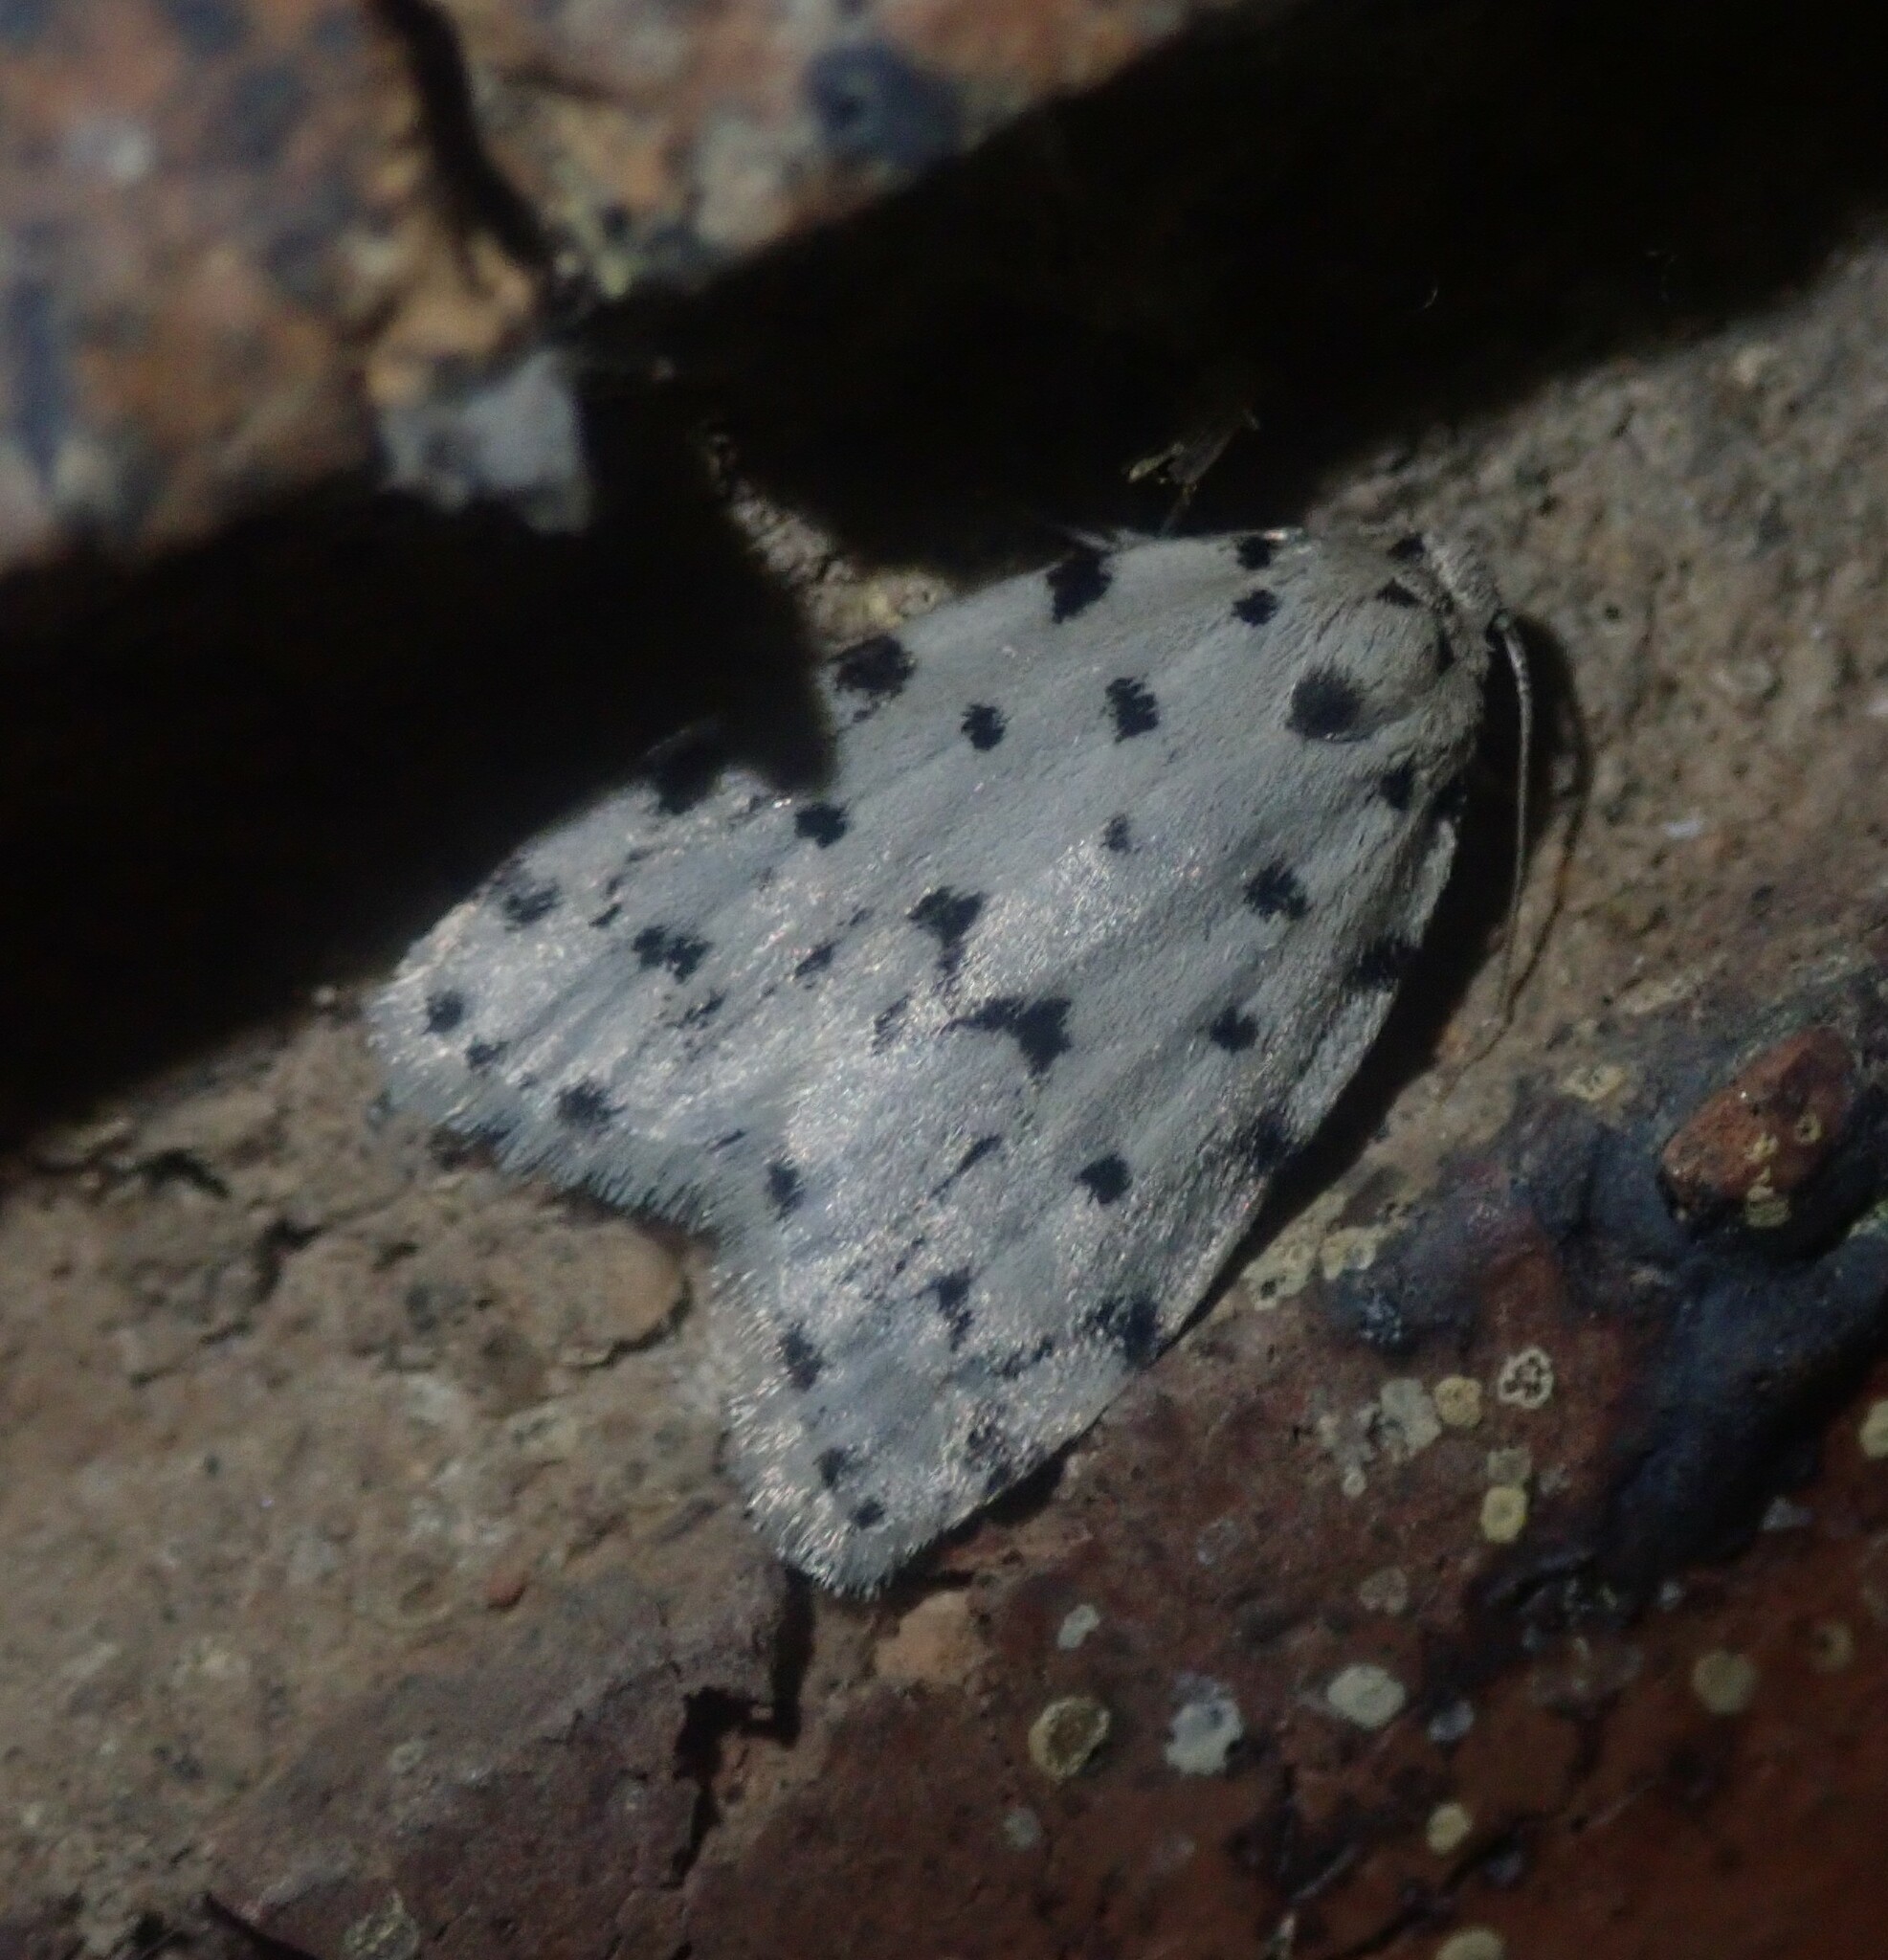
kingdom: Animalia
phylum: Arthropoda
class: Insecta
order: Lepidoptera
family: Erebidae
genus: Siccia
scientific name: Siccia caffra
